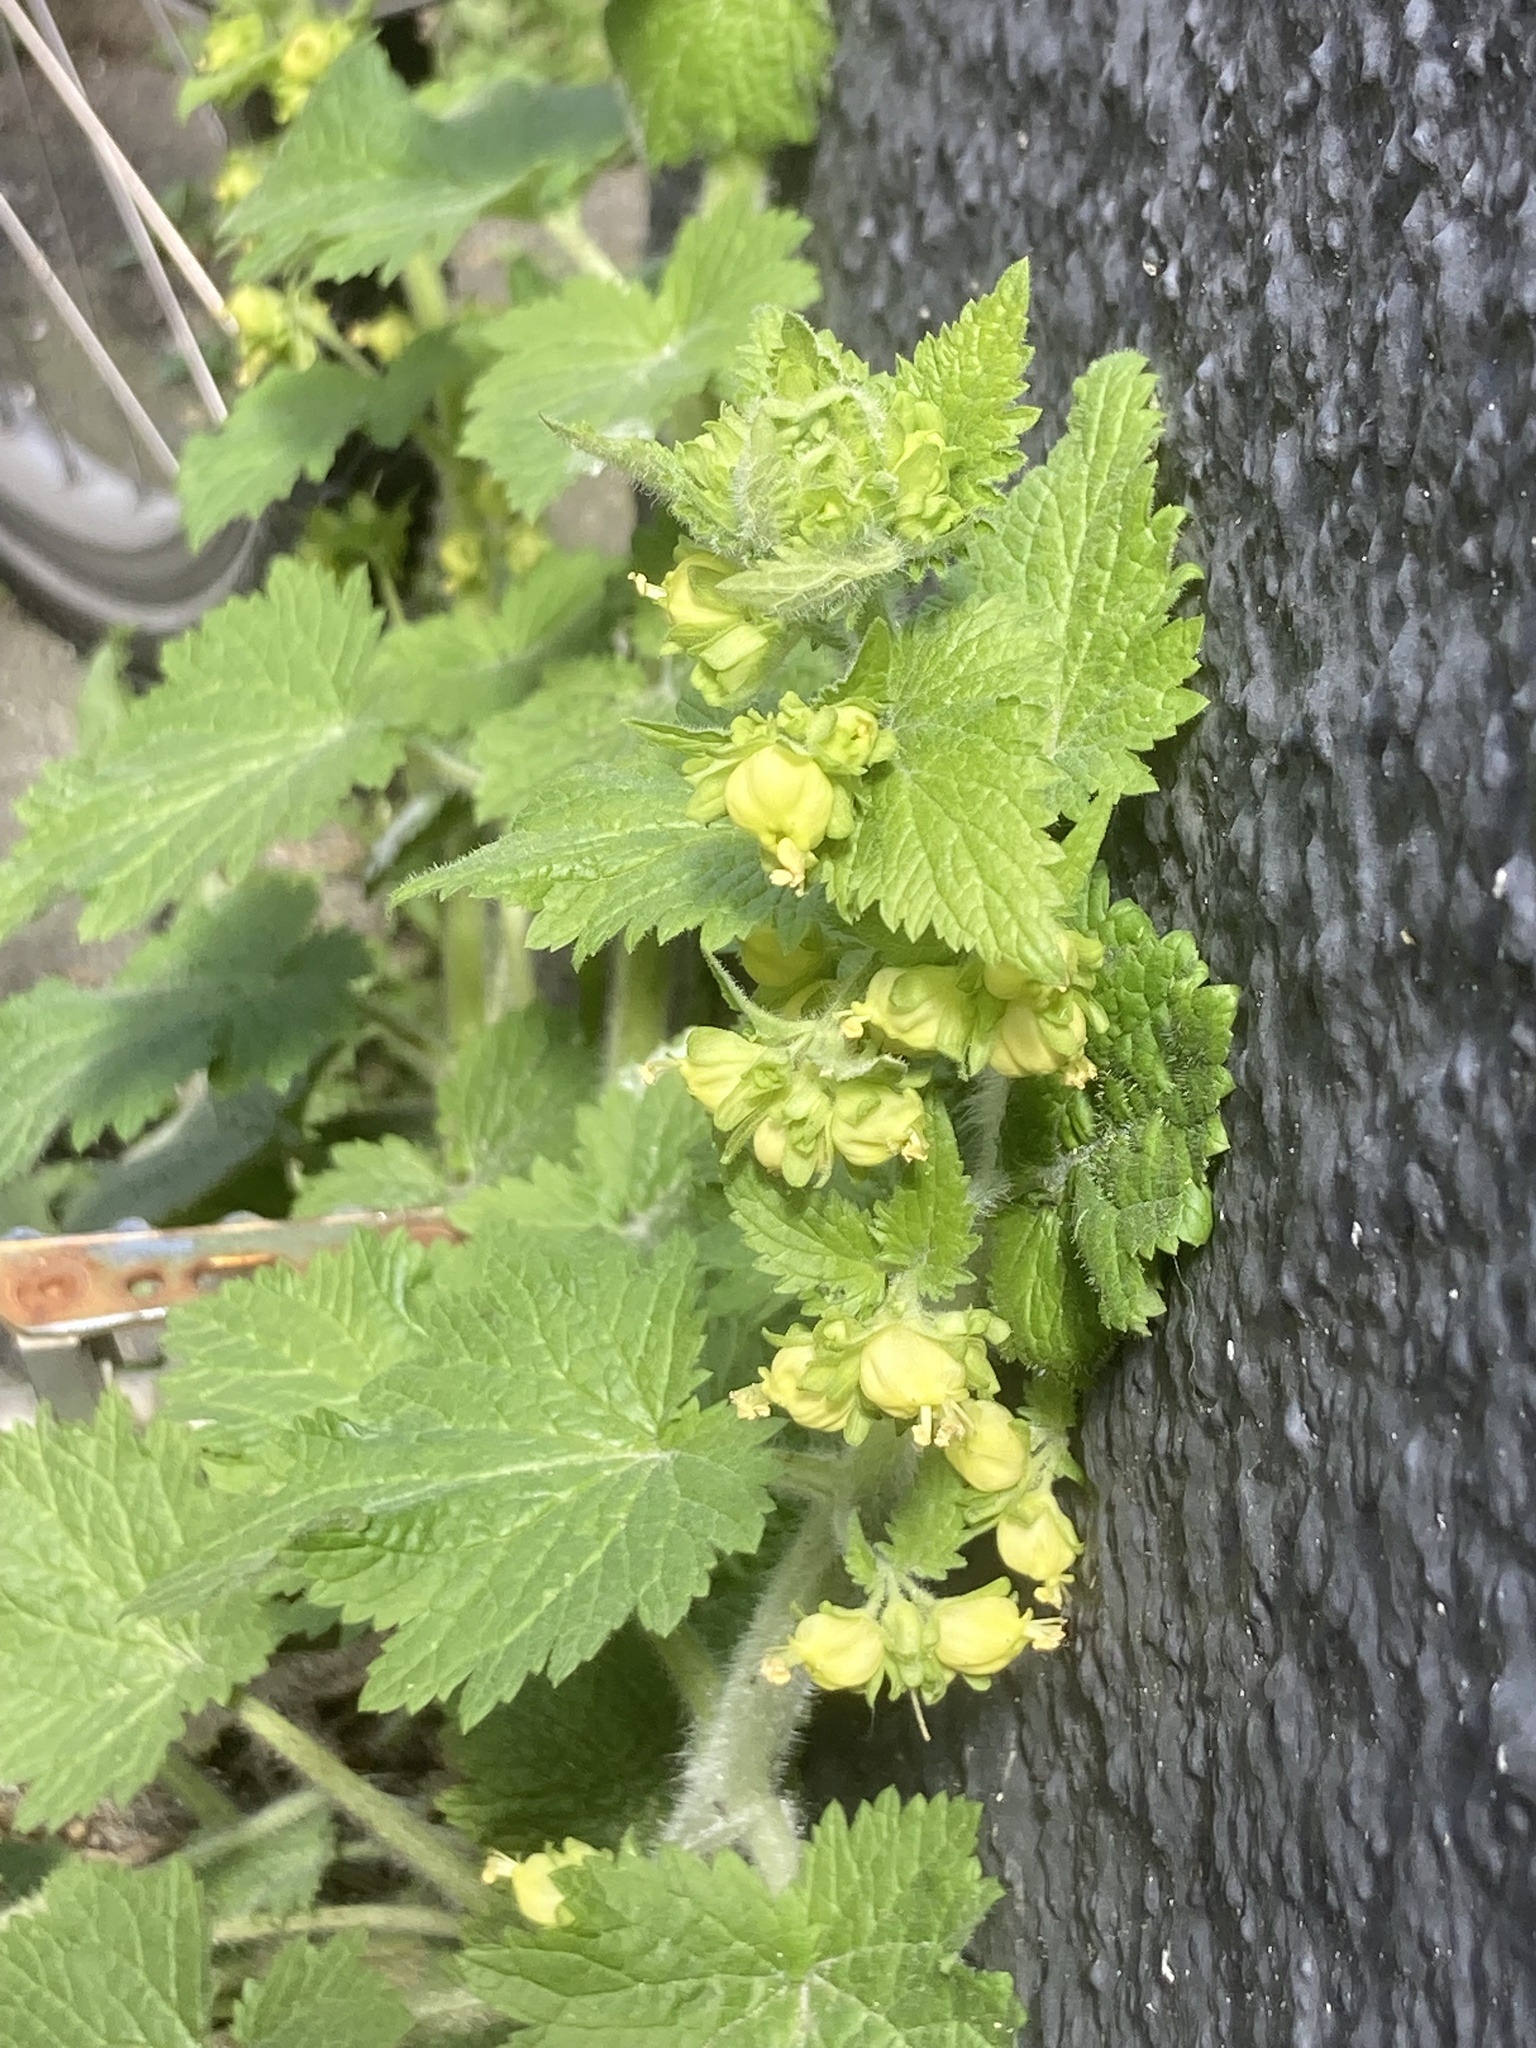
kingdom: Plantae
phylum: Tracheophyta
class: Magnoliopsida
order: Lamiales
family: Scrophulariaceae
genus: Scrophularia
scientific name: Scrophularia vernalis
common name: Yellow figwort
